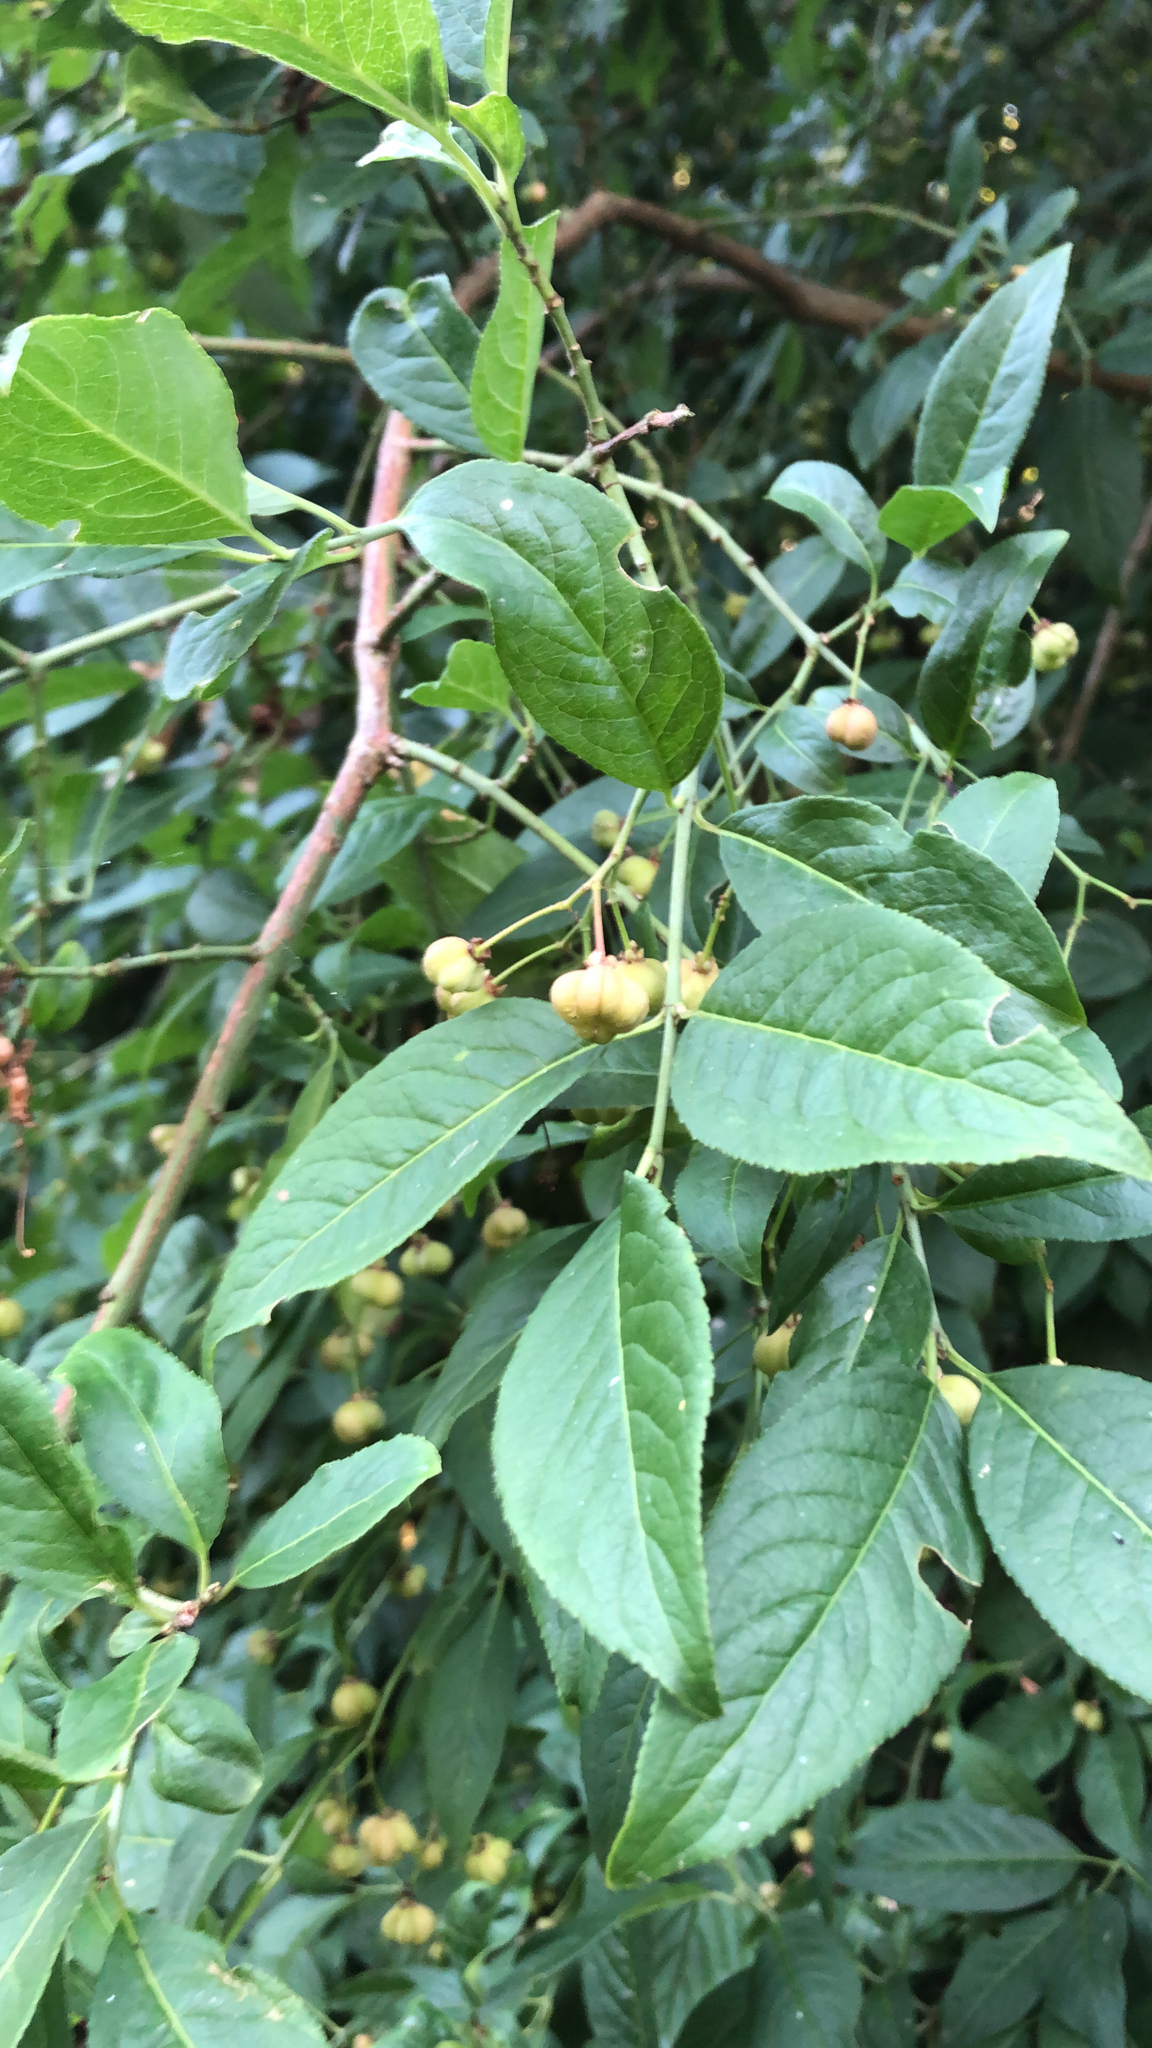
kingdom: Plantae
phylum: Tracheophyta
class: Magnoliopsida
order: Celastrales
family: Celastraceae
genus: Euonymus
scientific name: Euonymus europaeus
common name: Spindle
